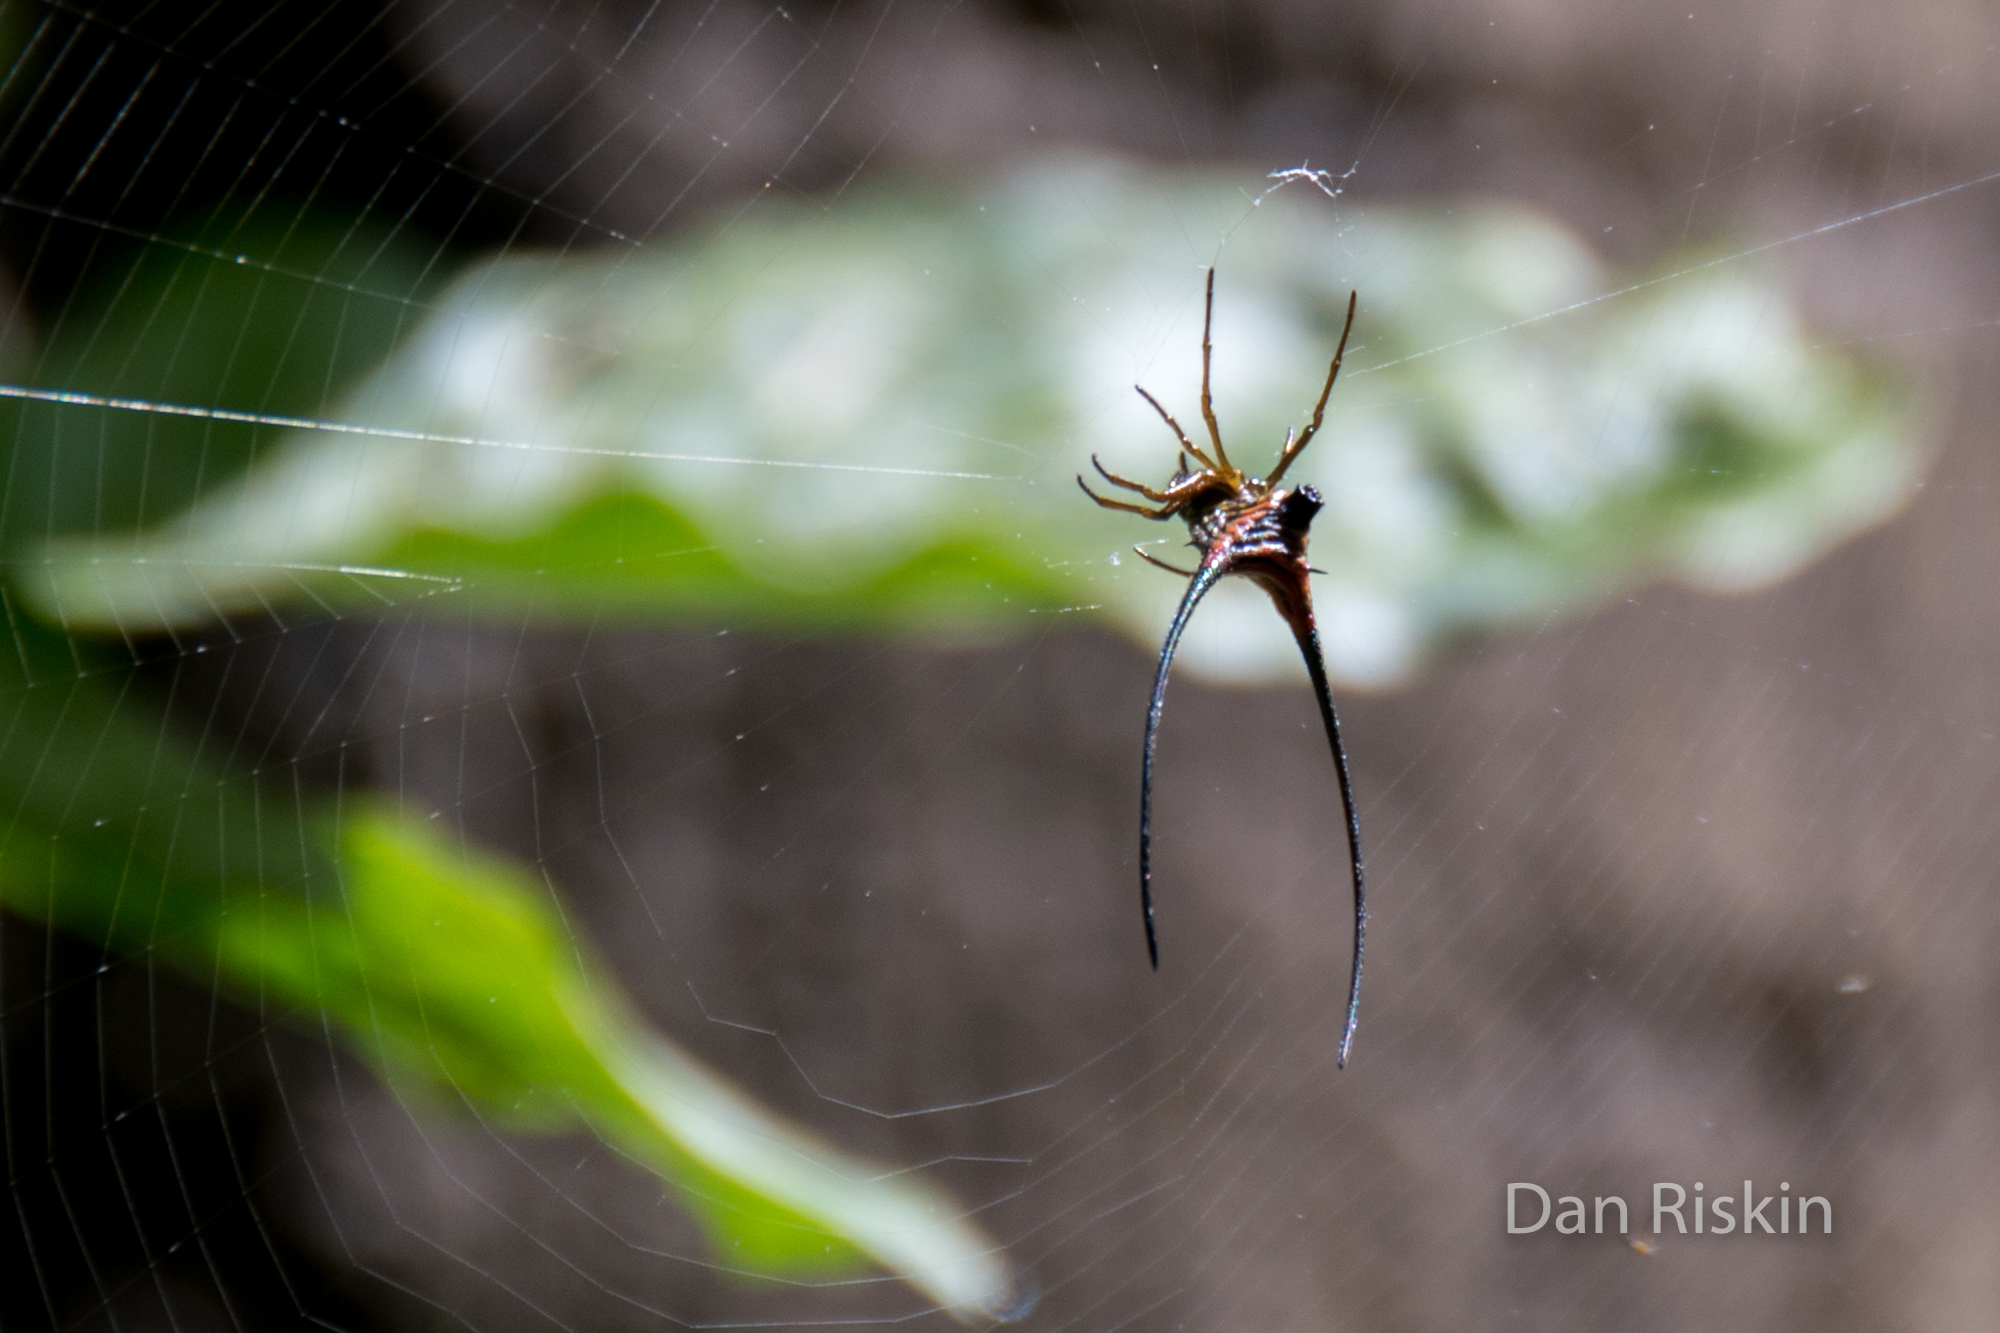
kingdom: Animalia
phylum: Arthropoda
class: Arachnida
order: Araneae
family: Araneidae
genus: Macracantha
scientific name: Macracantha arcuata
